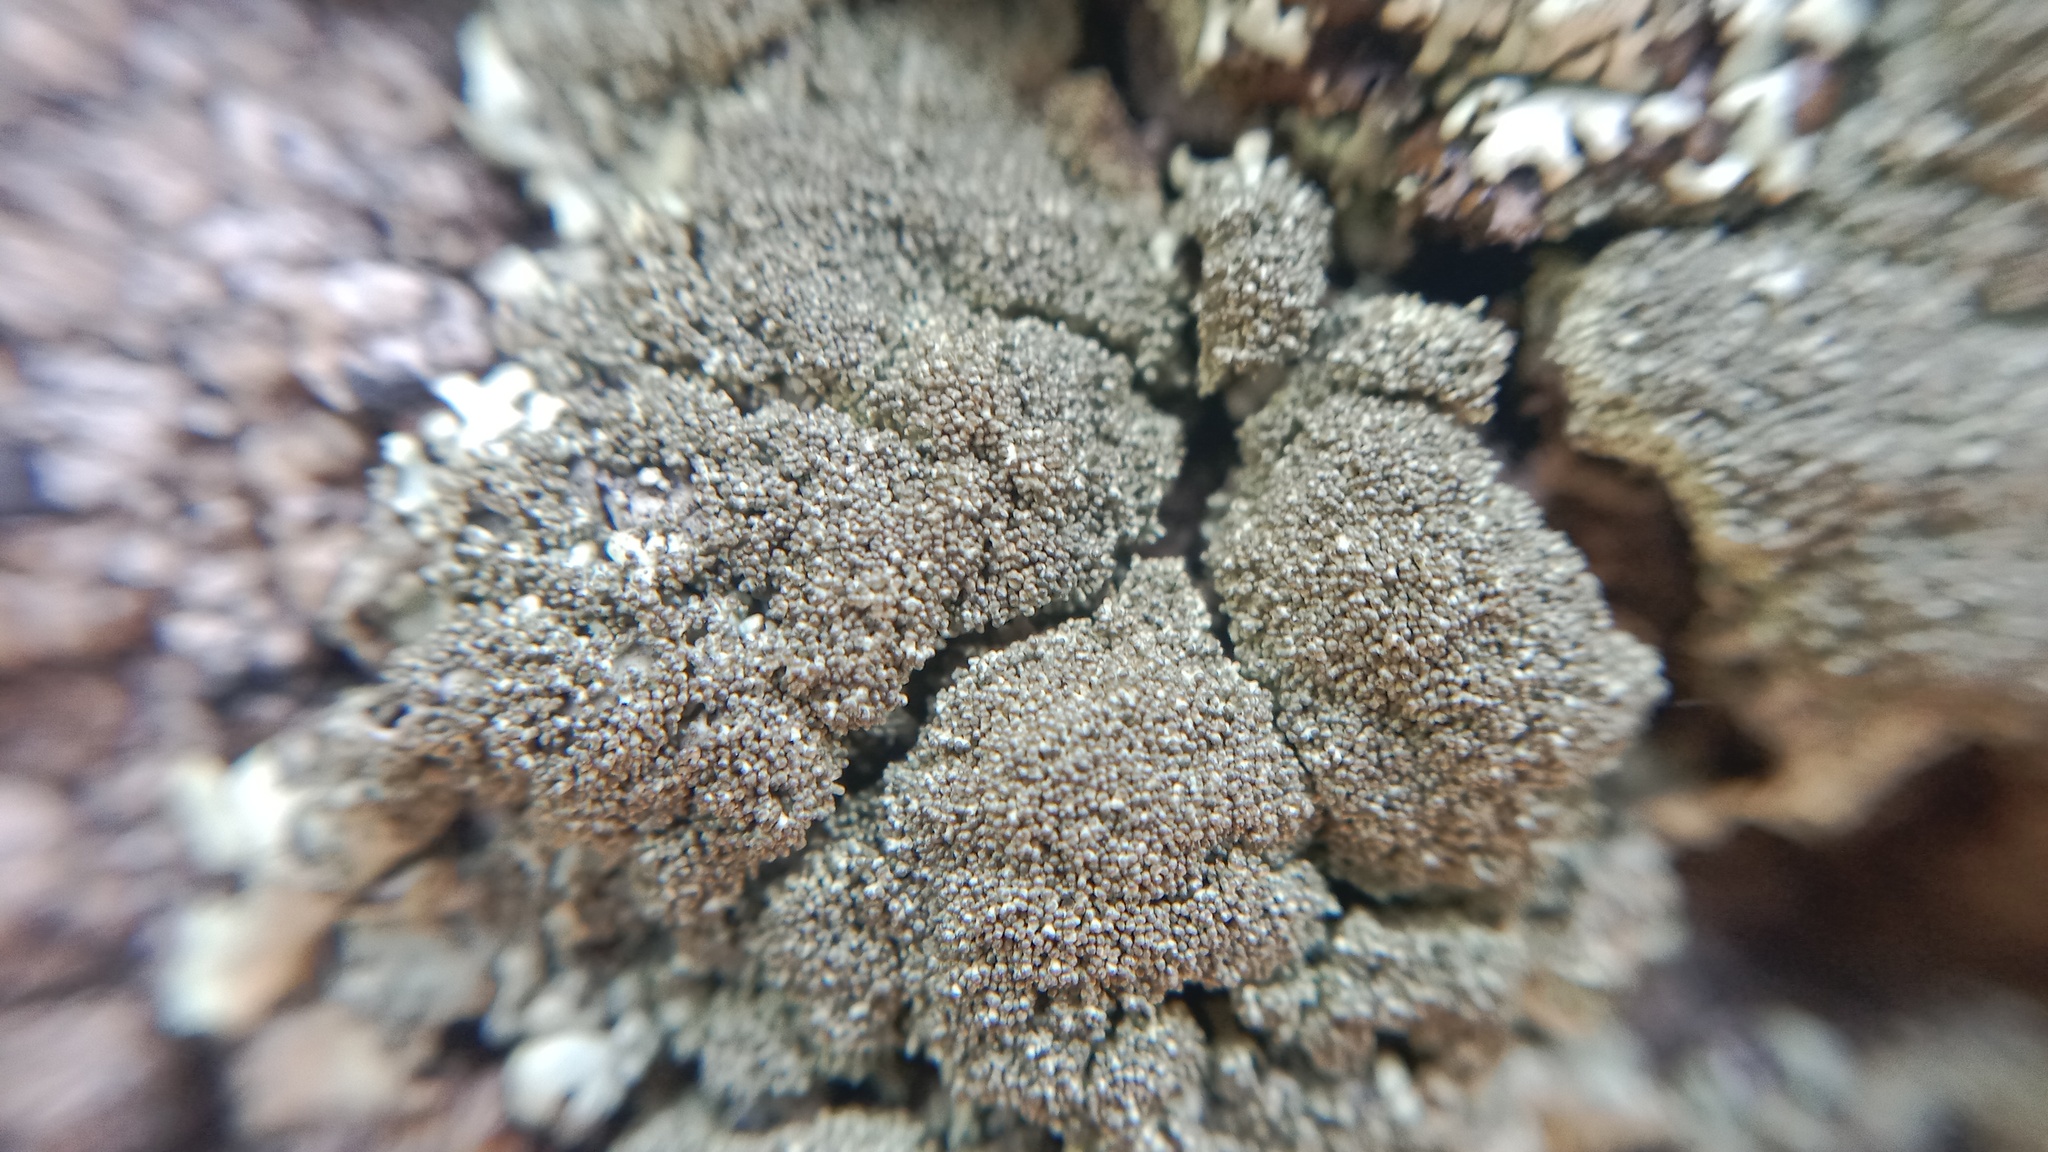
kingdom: Fungi
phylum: Ascomycota
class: Lecanoromycetes
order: Lecanorales
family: Parmeliaceae
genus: Xanthoparmelia
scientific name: Xanthoparmelia conspersa
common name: Peppered rock shield
